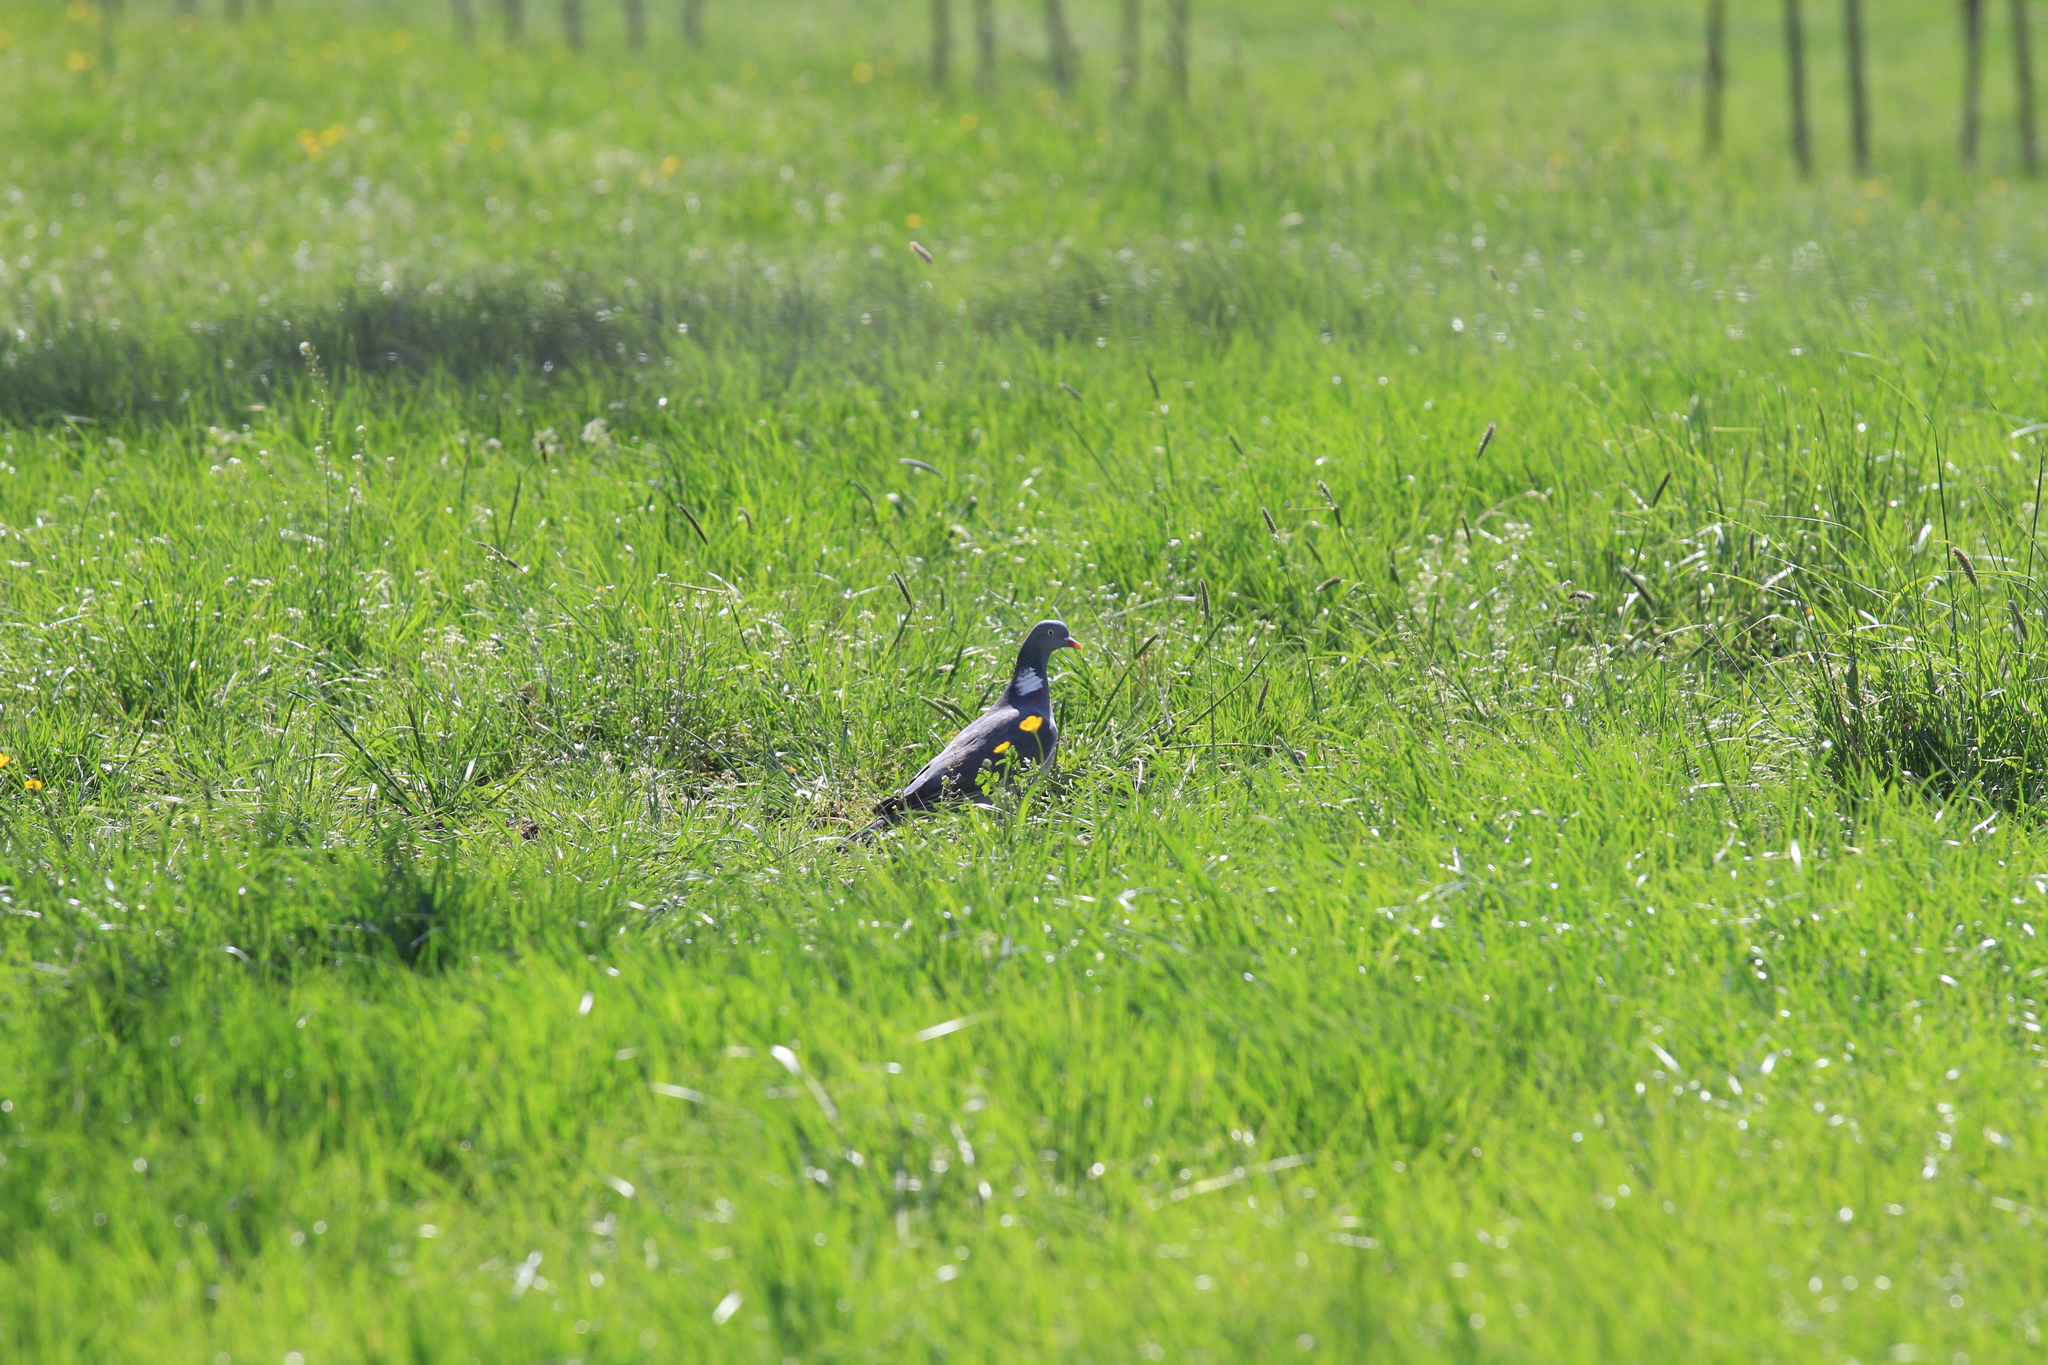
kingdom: Animalia
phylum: Chordata
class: Aves
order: Columbiformes
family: Columbidae
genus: Columba
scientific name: Columba palumbus
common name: Common wood pigeon
